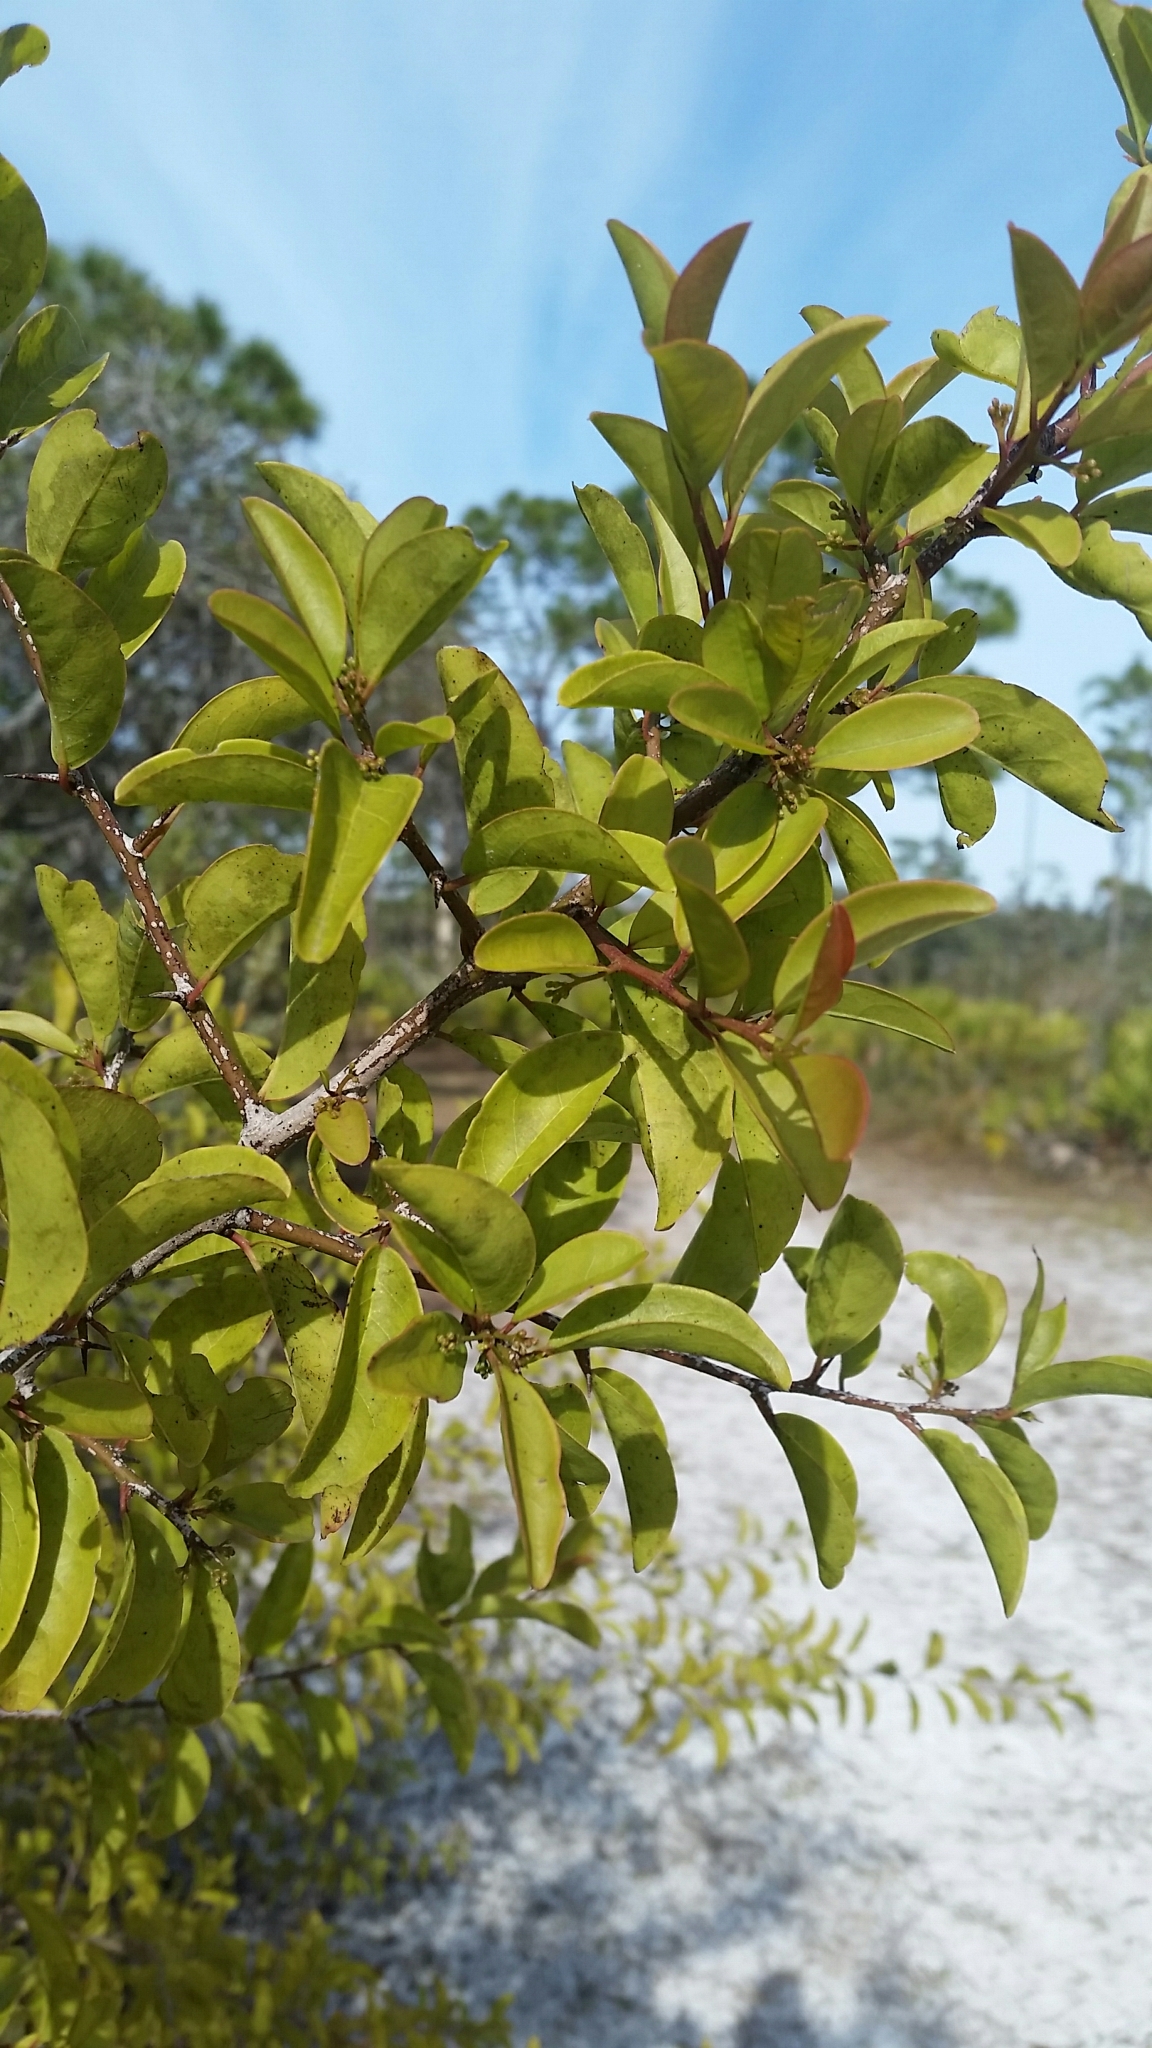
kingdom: Plantae
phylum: Tracheophyta
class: Magnoliopsida
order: Santalales
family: Ximeniaceae
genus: Ximenia
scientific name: Ximenia americana
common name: Tallowwood
